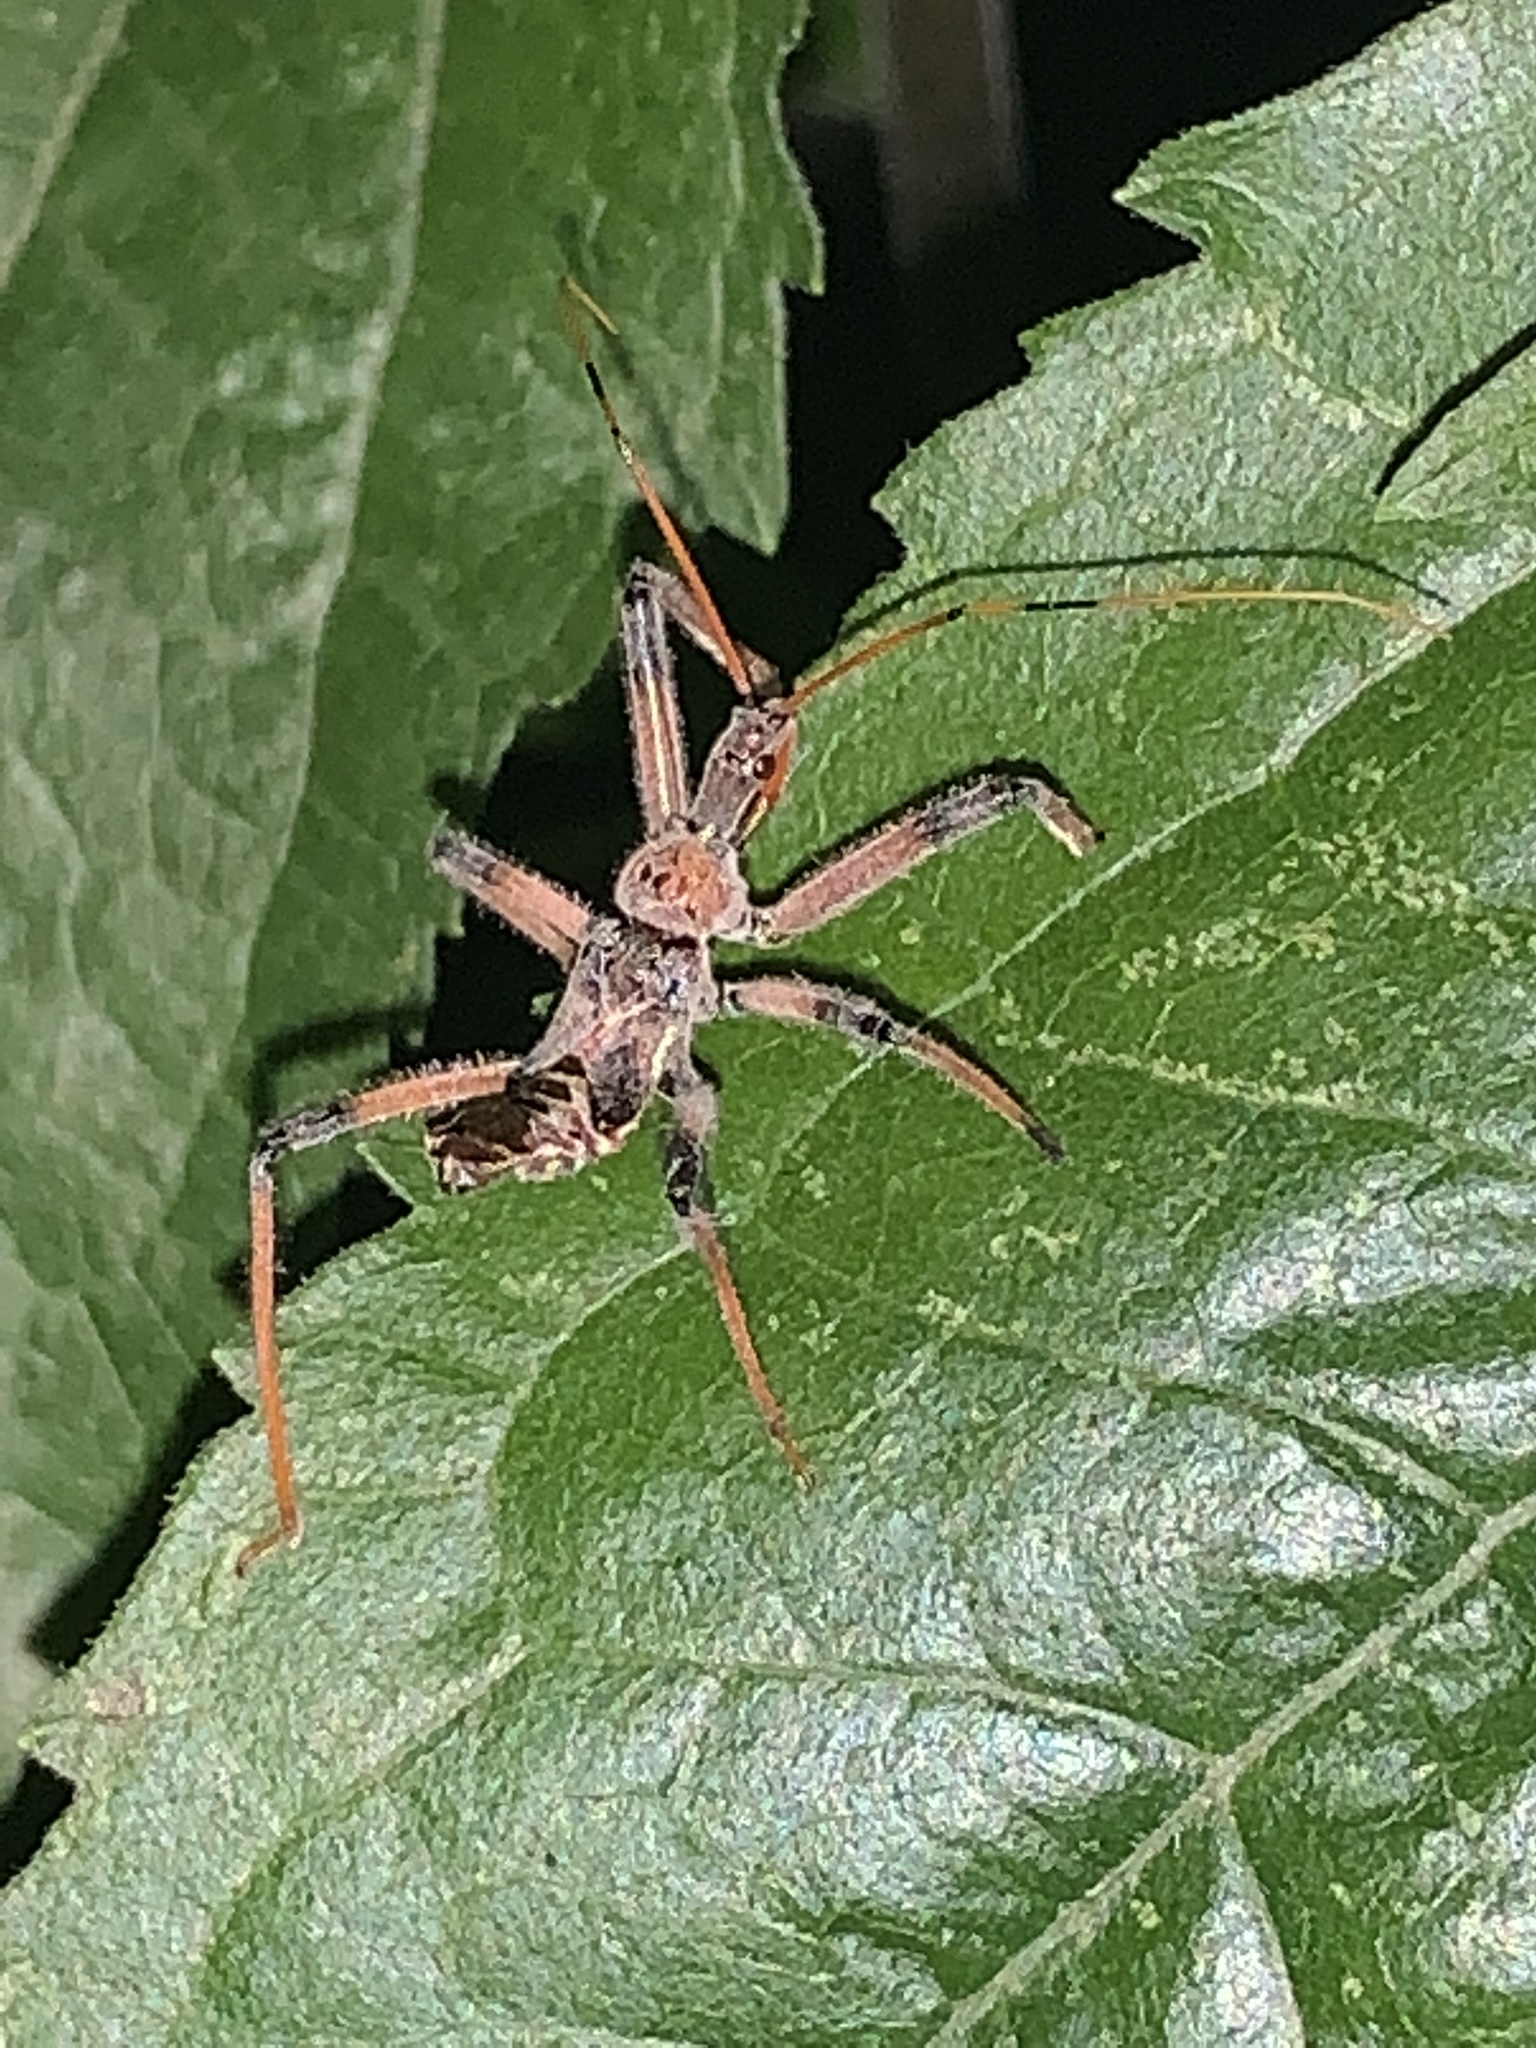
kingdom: Animalia
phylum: Arthropoda
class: Insecta
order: Hemiptera
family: Reduviidae
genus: Arilus
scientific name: Arilus cristatus
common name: North american wheel bug
